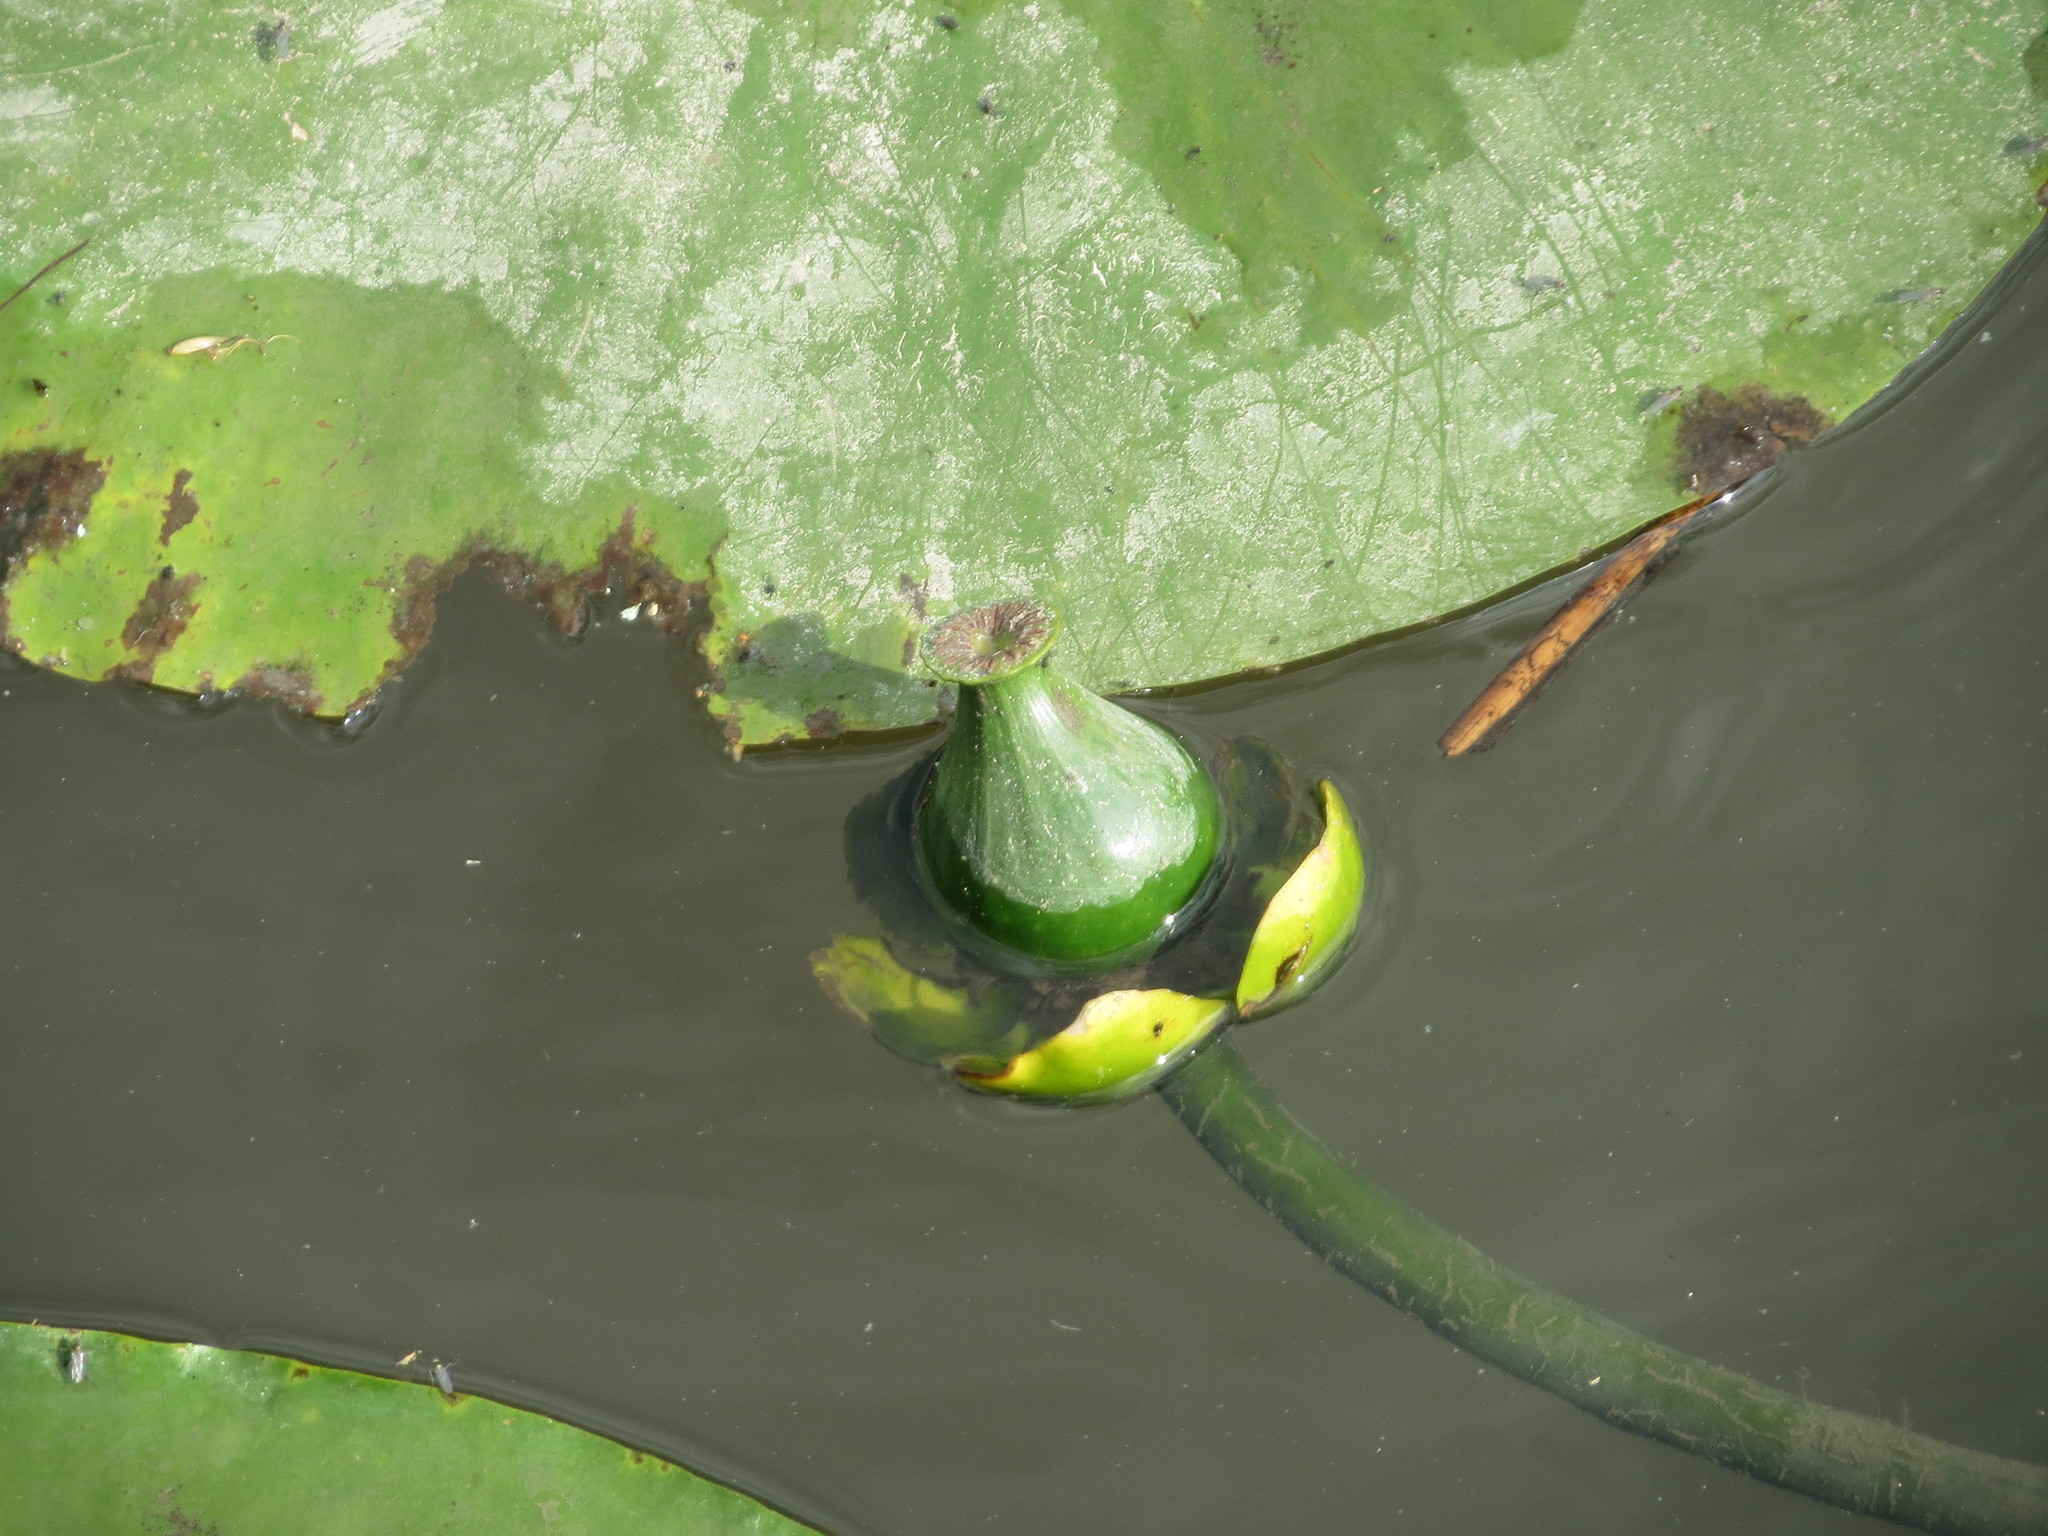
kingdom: Plantae
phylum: Tracheophyta
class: Magnoliopsida
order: Nymphaeales
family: Nymphaeaceae
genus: Nuphar
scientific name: Nuphar lutea
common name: Yellow water-lily
